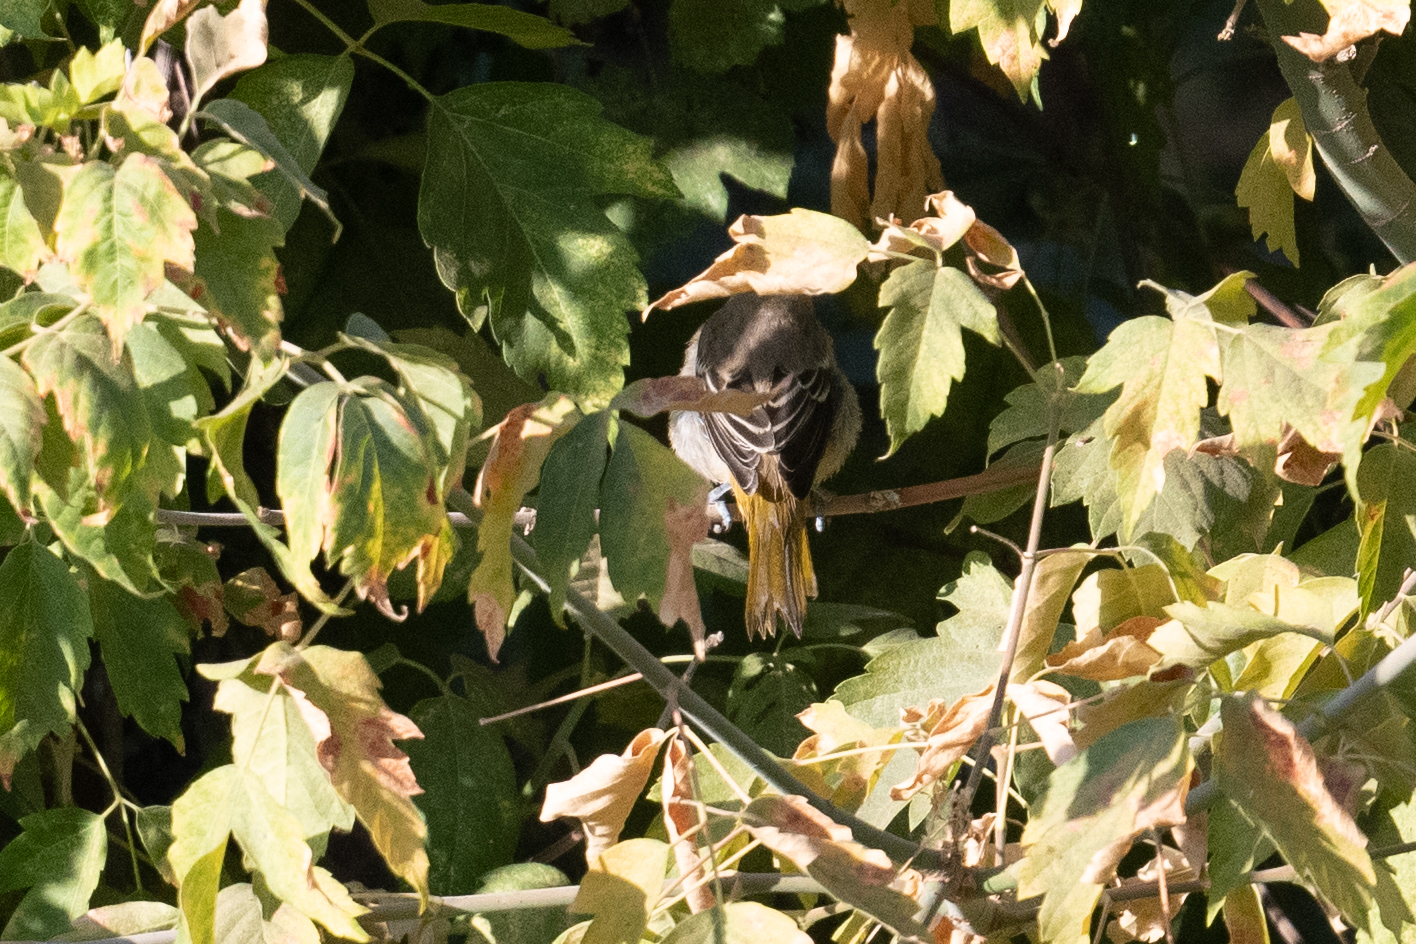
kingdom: Animalia
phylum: Chordata
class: Aves
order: Passeriformes
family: Icteridae
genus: Icterus
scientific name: Icterus bullockii
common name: Bullock's oriole
